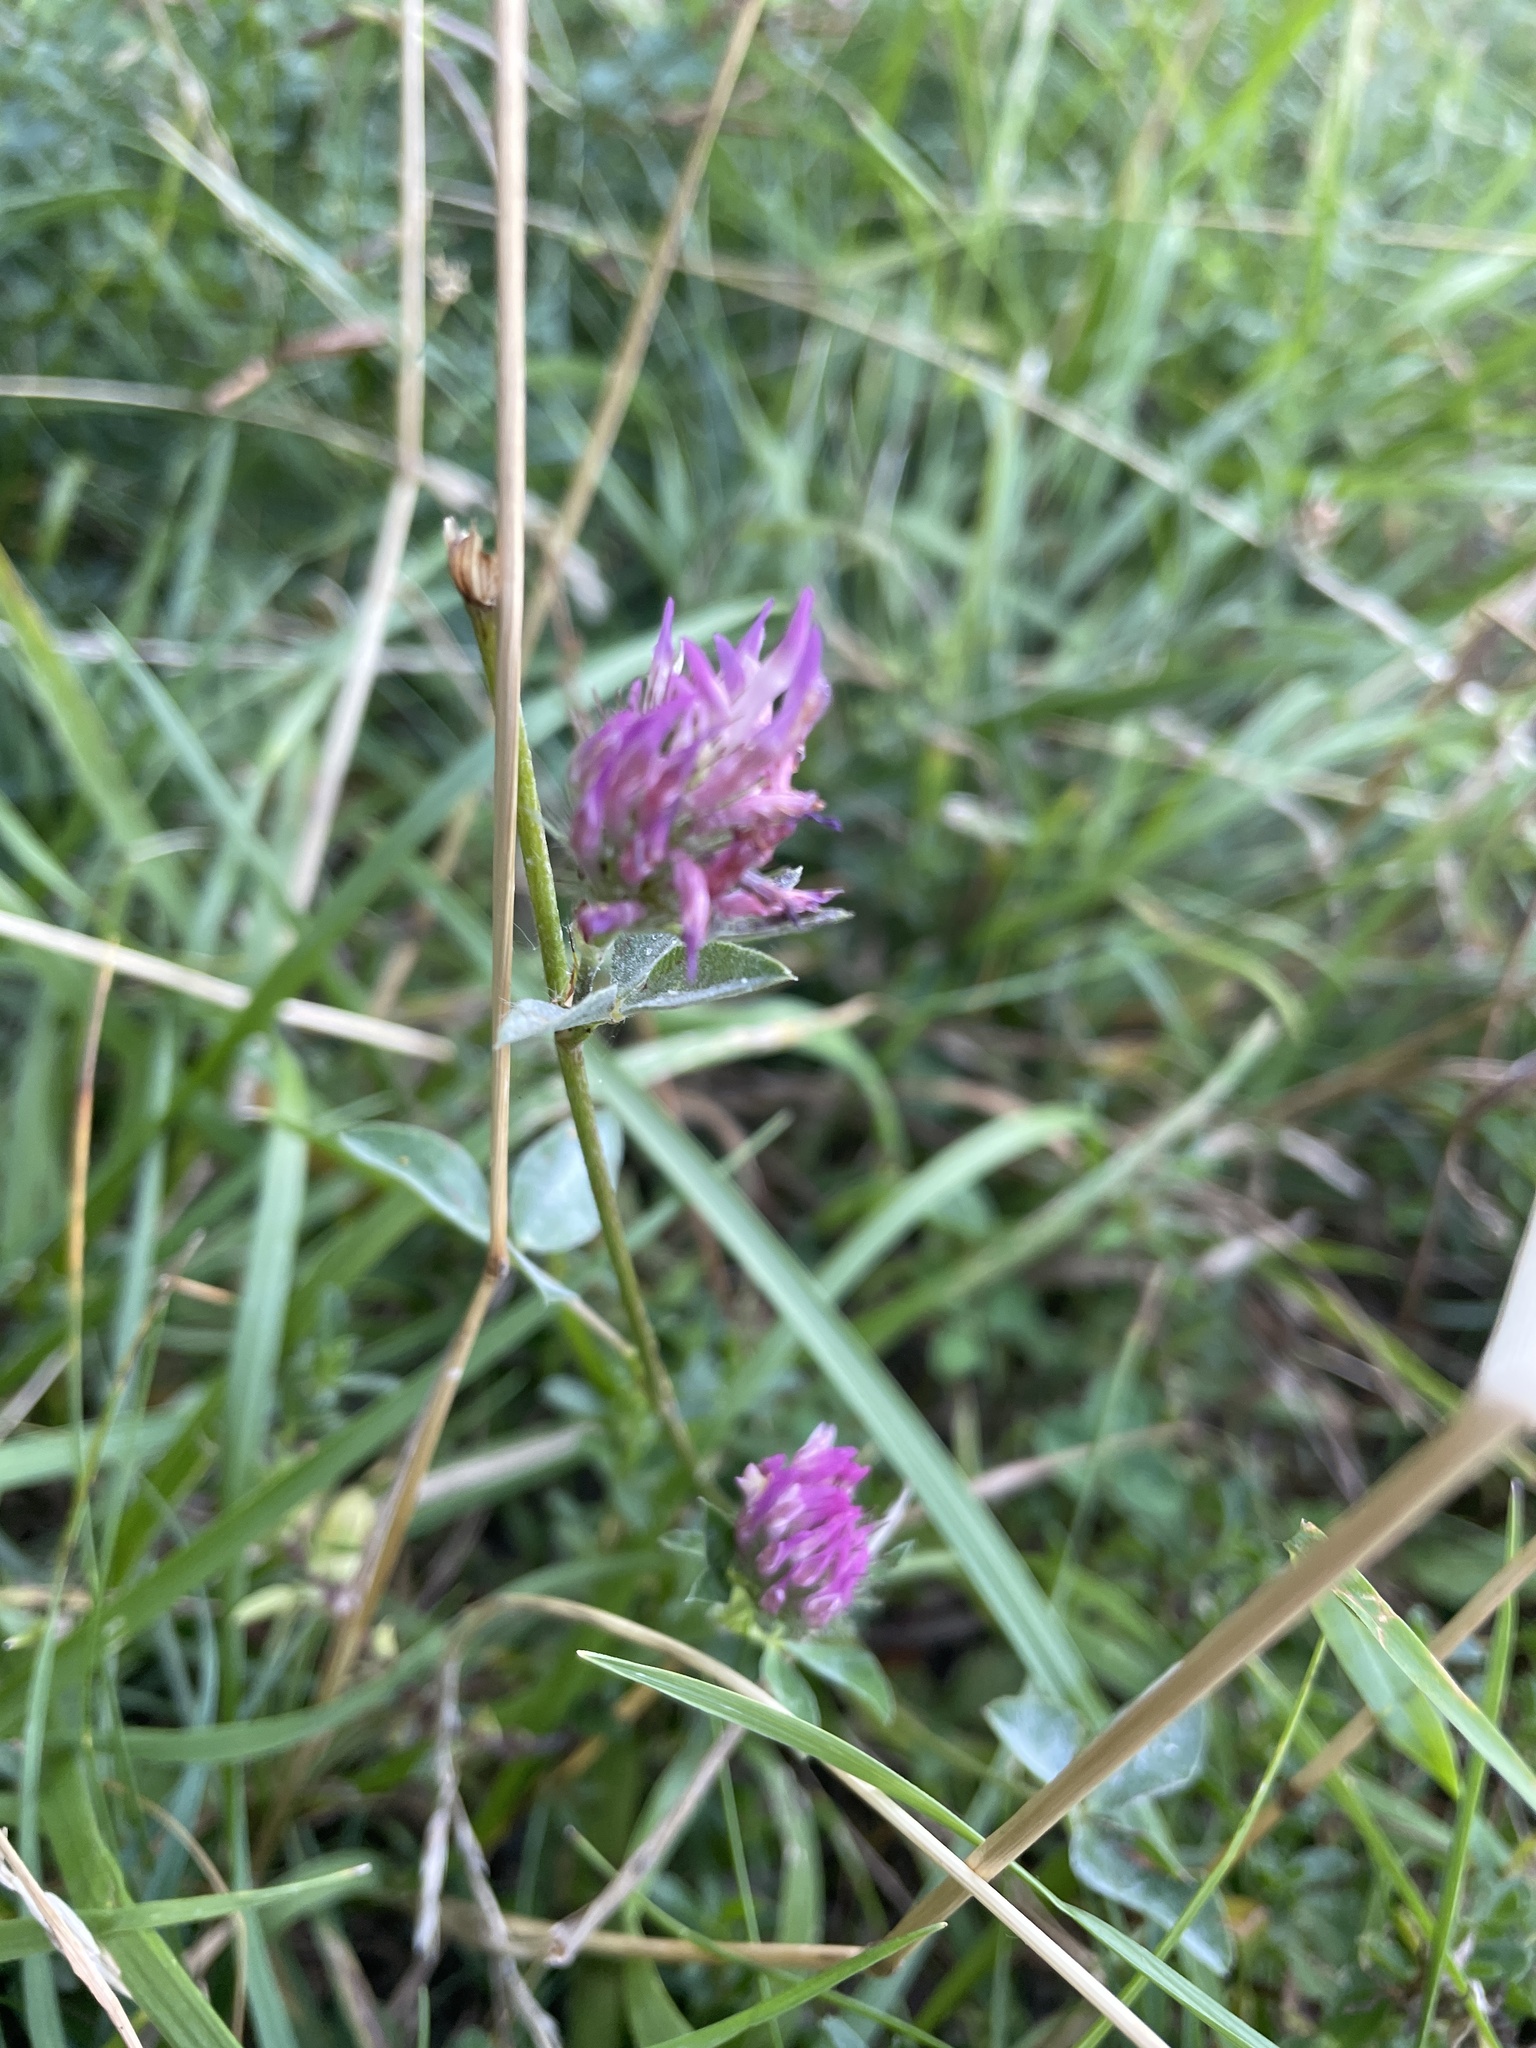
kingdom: Plantae
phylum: Tracheophyta
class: Magnoliopsida
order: Fabales
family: Fabaceae
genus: Trifolium
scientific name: Trifolium pratense
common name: Red clover
